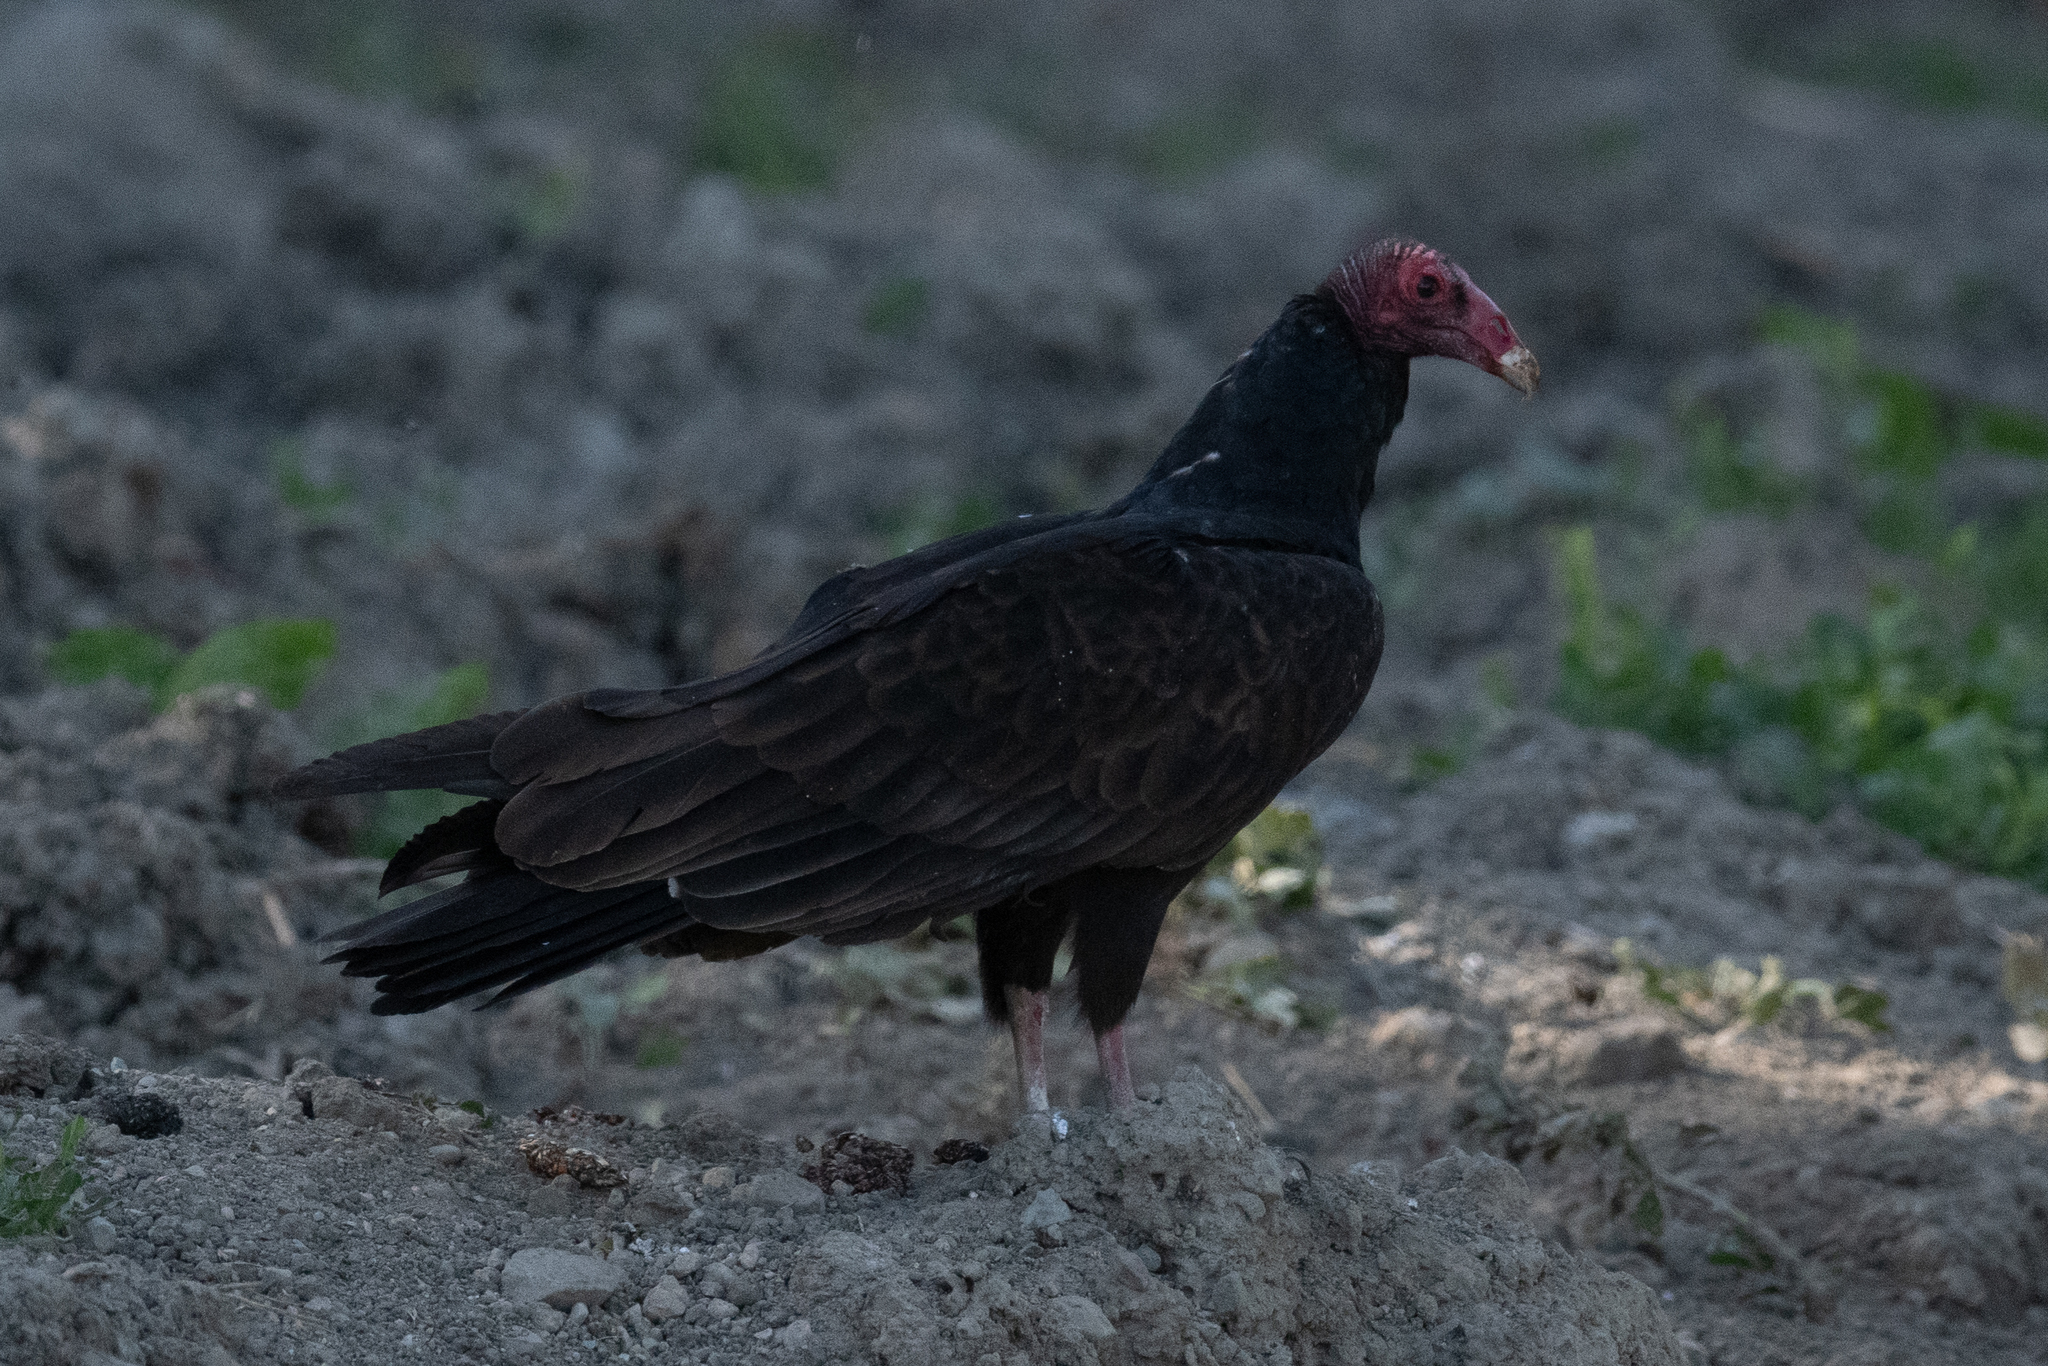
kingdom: Animalia
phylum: Chordata
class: Aves
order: Accipitriformes
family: Cathartidae
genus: Cathartes
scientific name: Cathartes aura
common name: Turkey vulture
